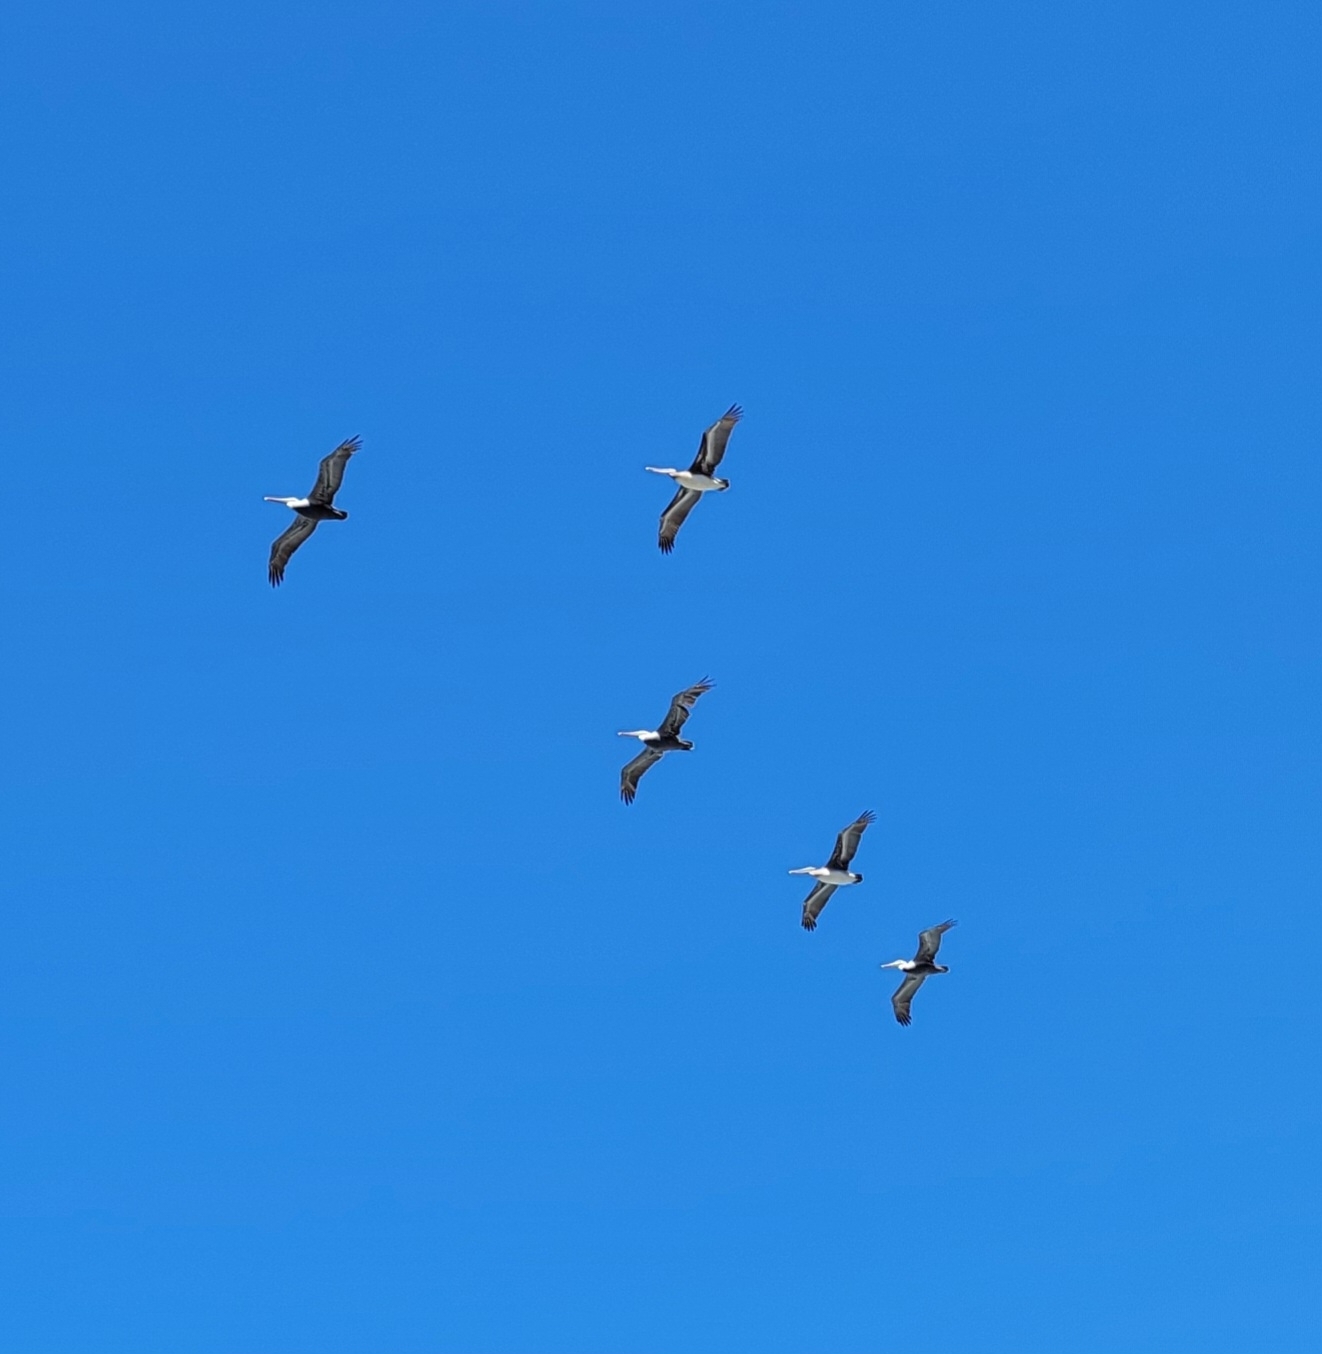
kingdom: Animalia
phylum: Chordata
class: Aves
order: Pelecaniformes
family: Pelecanidae
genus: Pelecanus
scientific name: Pelecanus occidentalis
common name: Brown pelican
